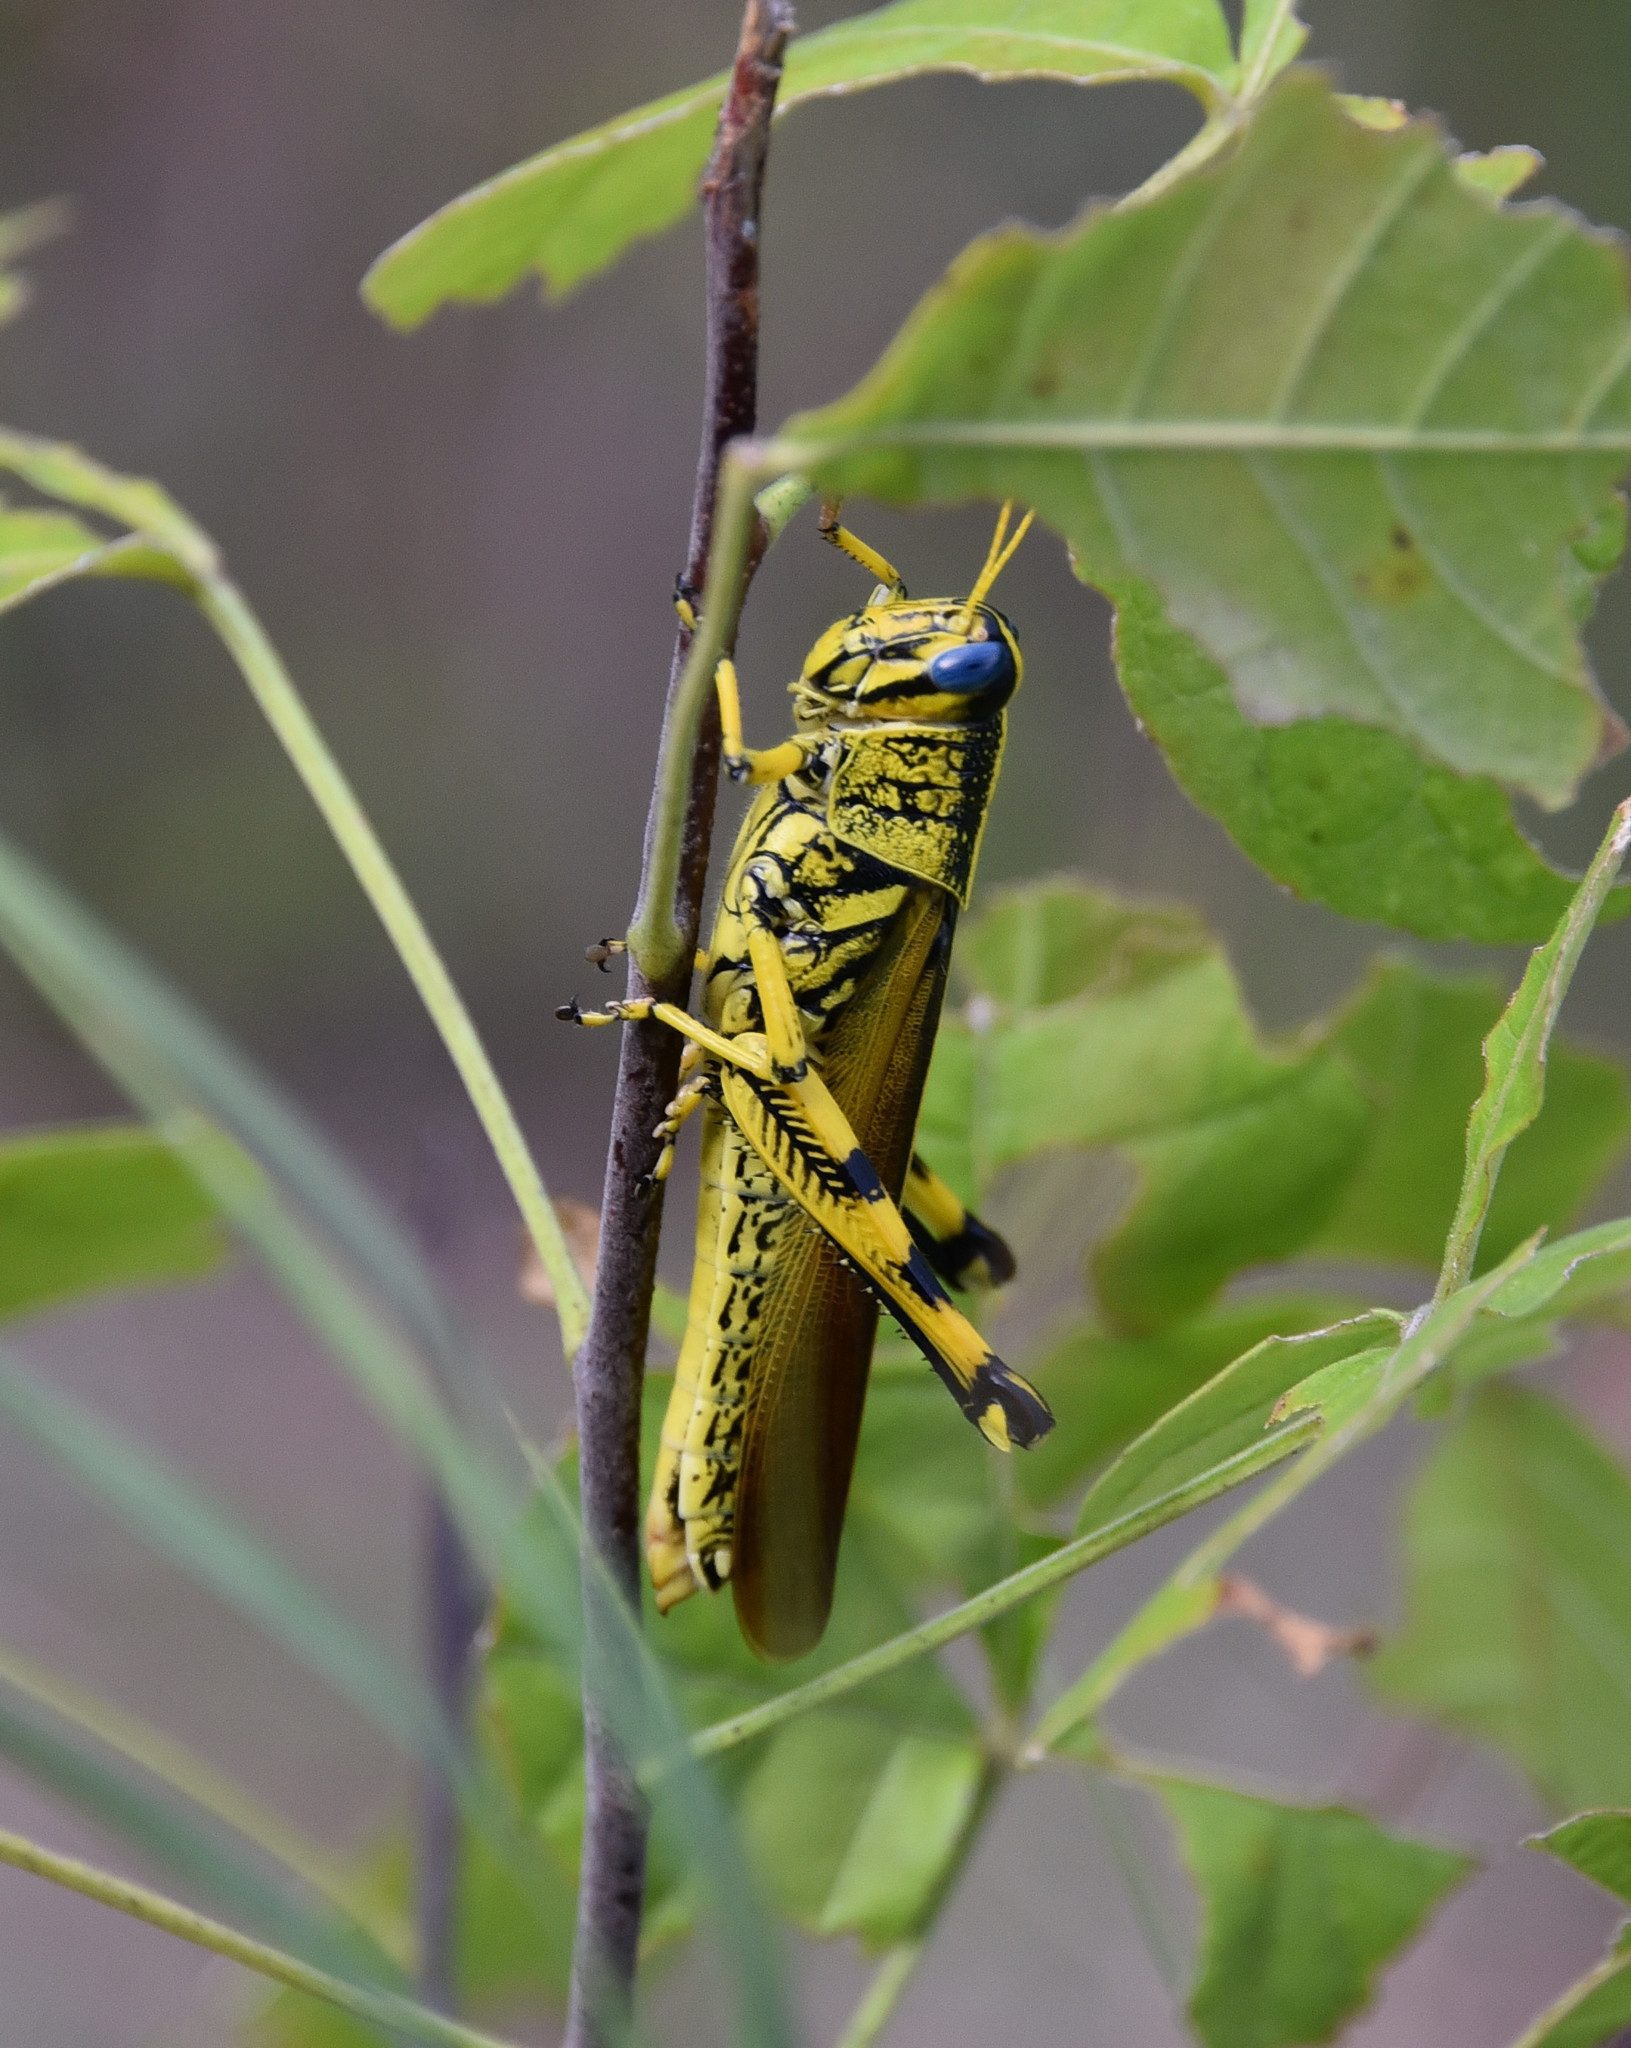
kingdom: Animalia
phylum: Arthropoda
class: Insecta
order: Orthoptera
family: Acrididae
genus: Schistocerca
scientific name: Schistocerca lineata
